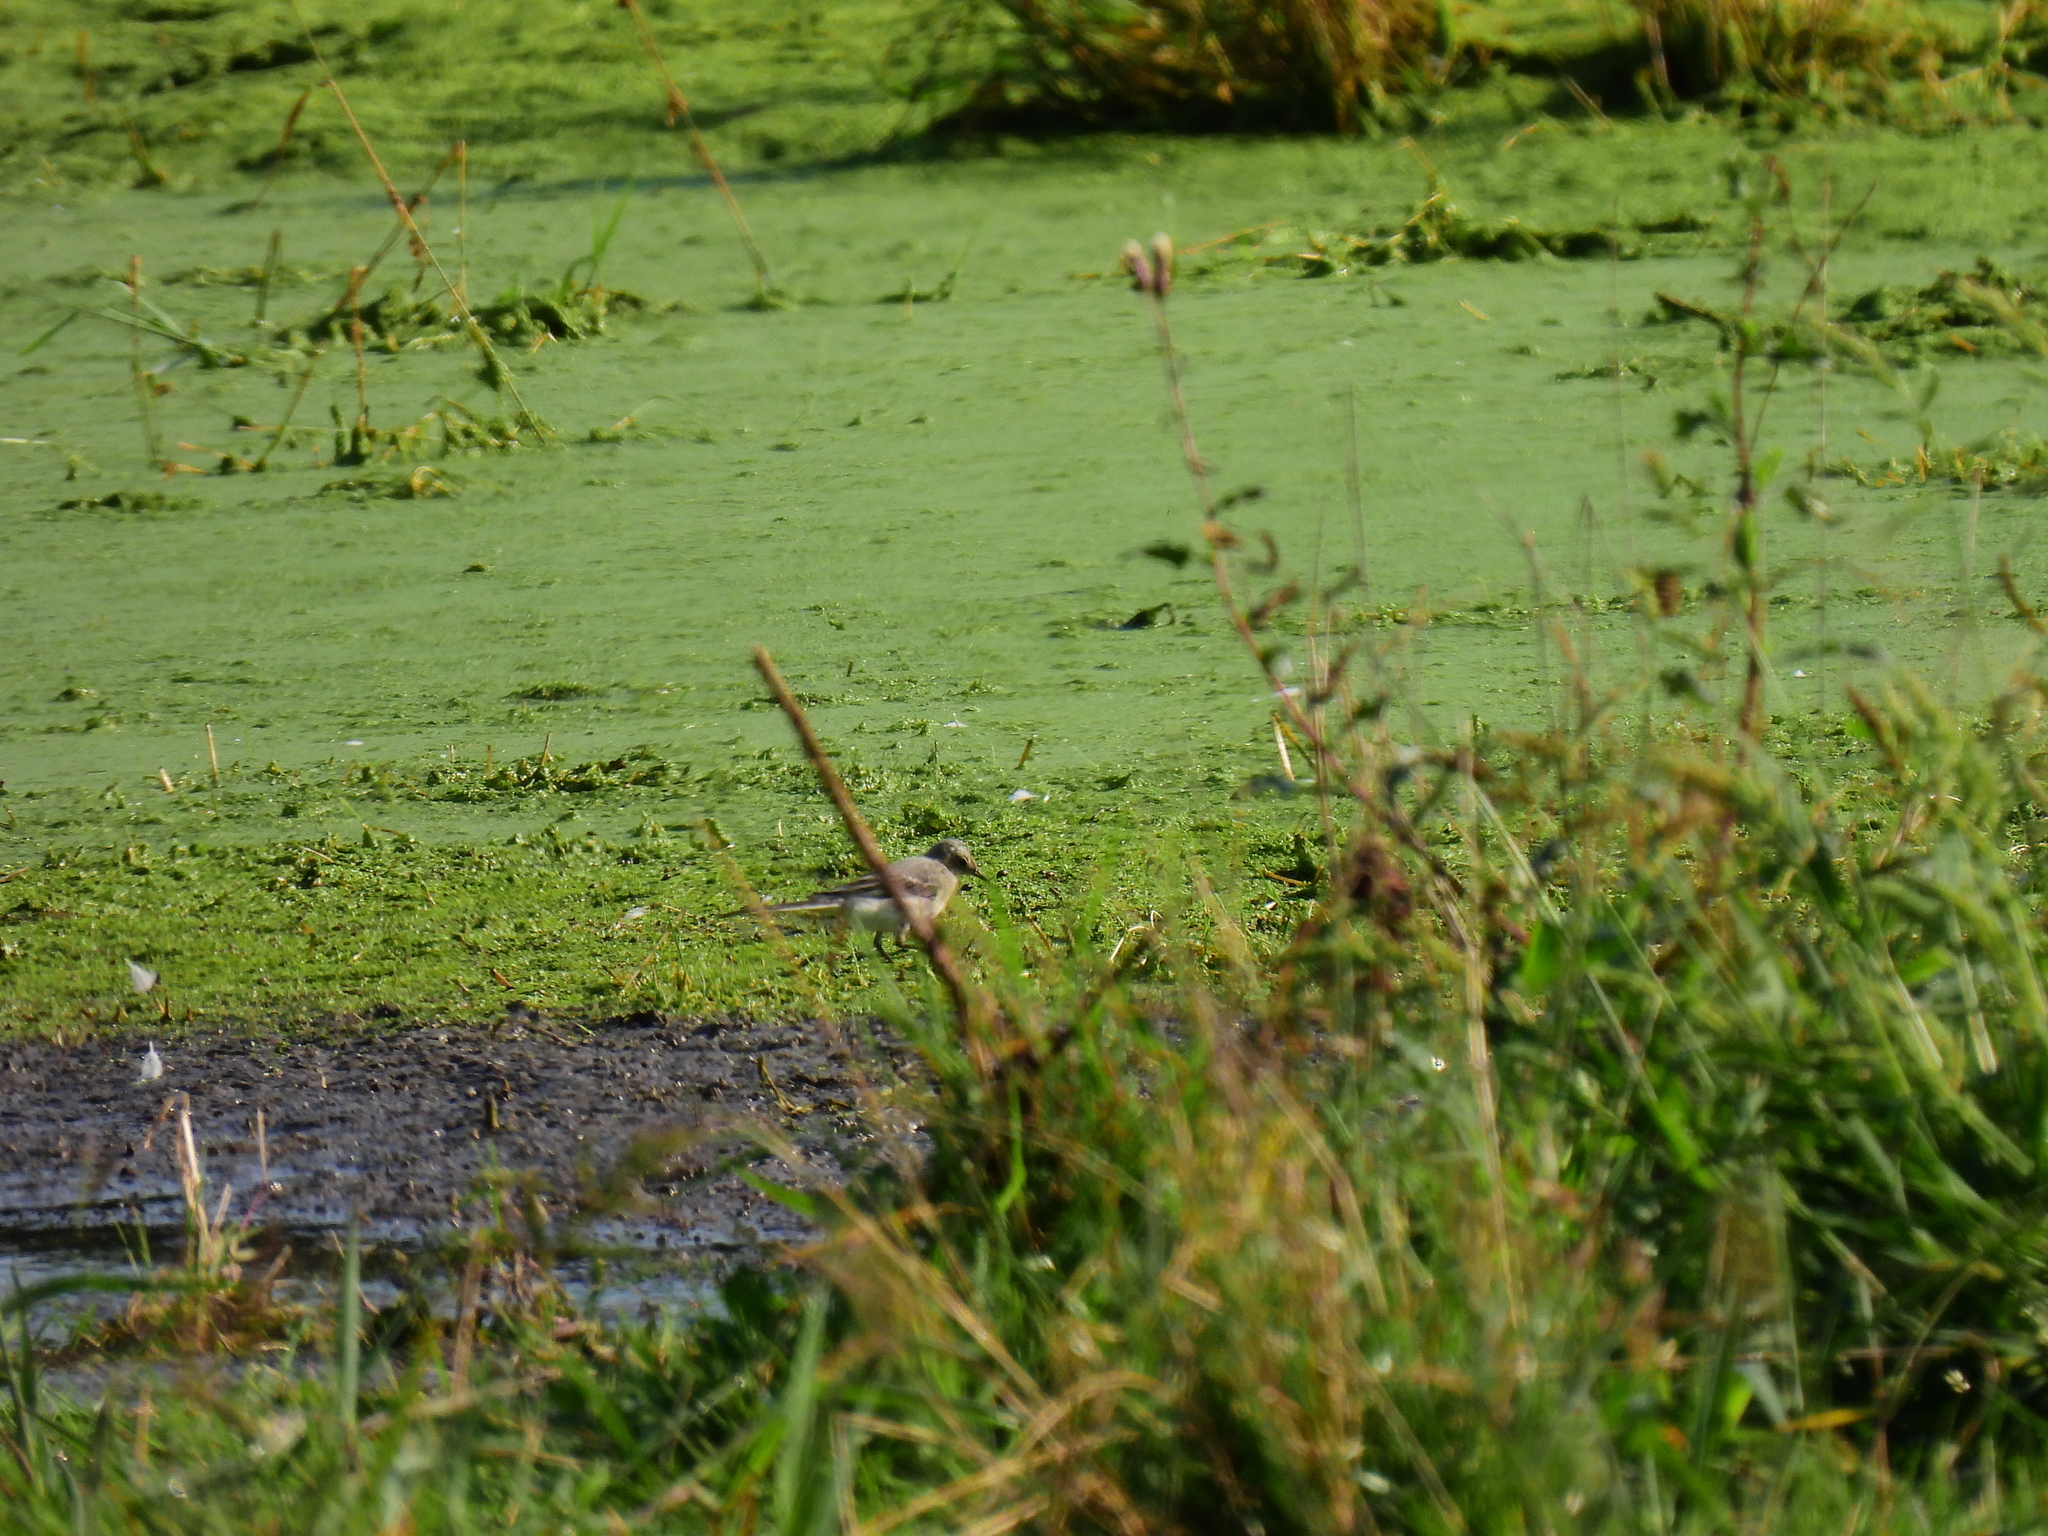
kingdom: Animalia
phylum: Chordata
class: Aves
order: Passeriformes
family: Motacillidae
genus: Motacilla
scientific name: Motacilla alba
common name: White wagtail
